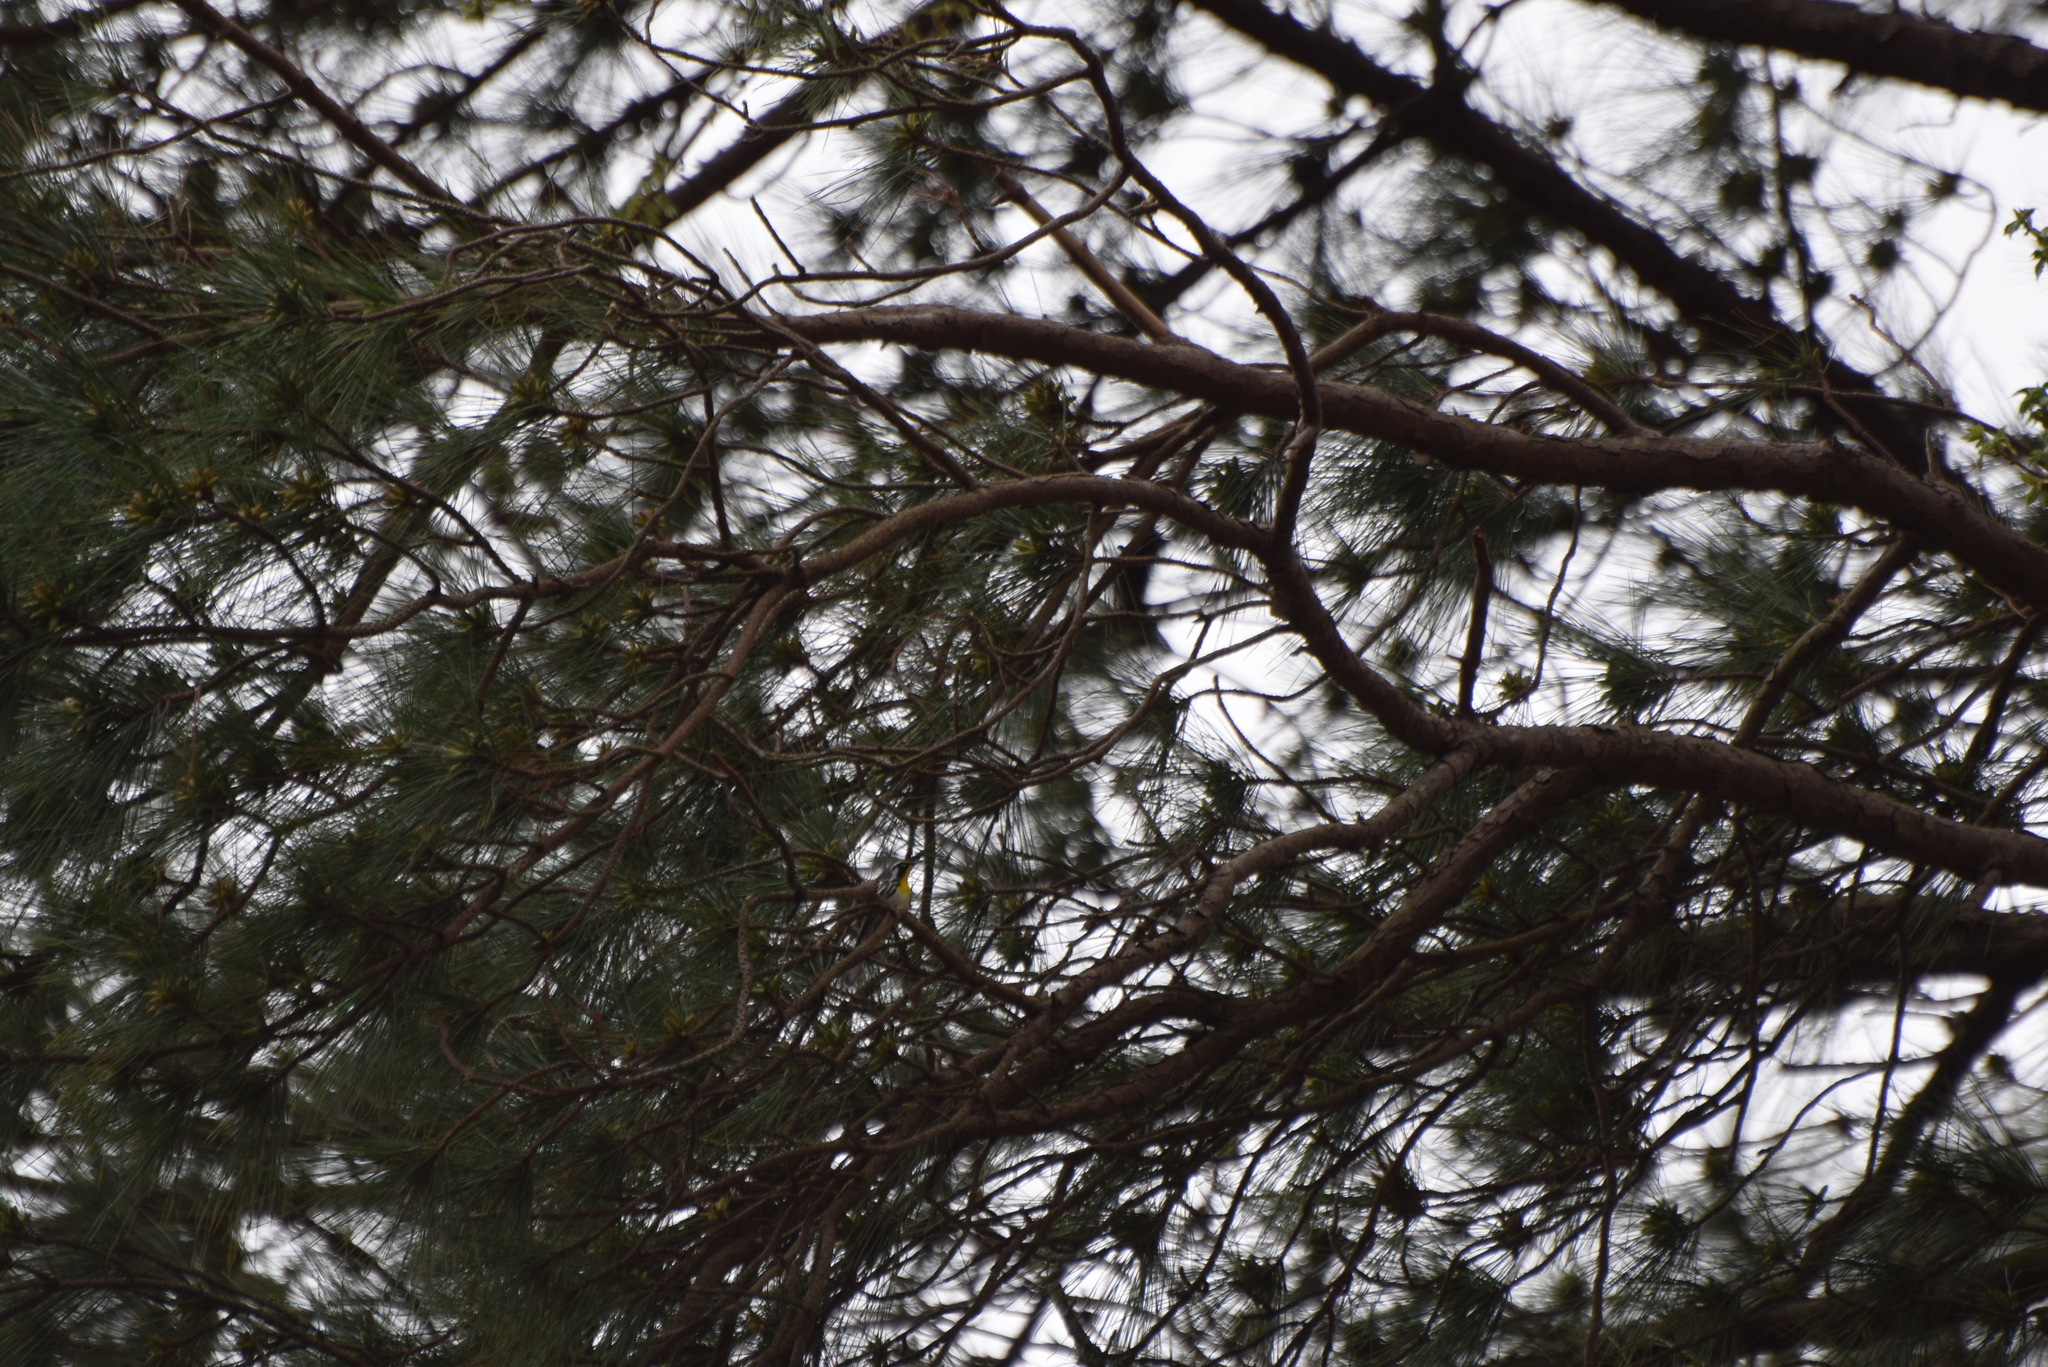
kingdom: Animalia
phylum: Chordata
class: Aves
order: Passeriformes
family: Parulidae
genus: Setophaga
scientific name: Setophaga dominica
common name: Yellow-throated warbler
